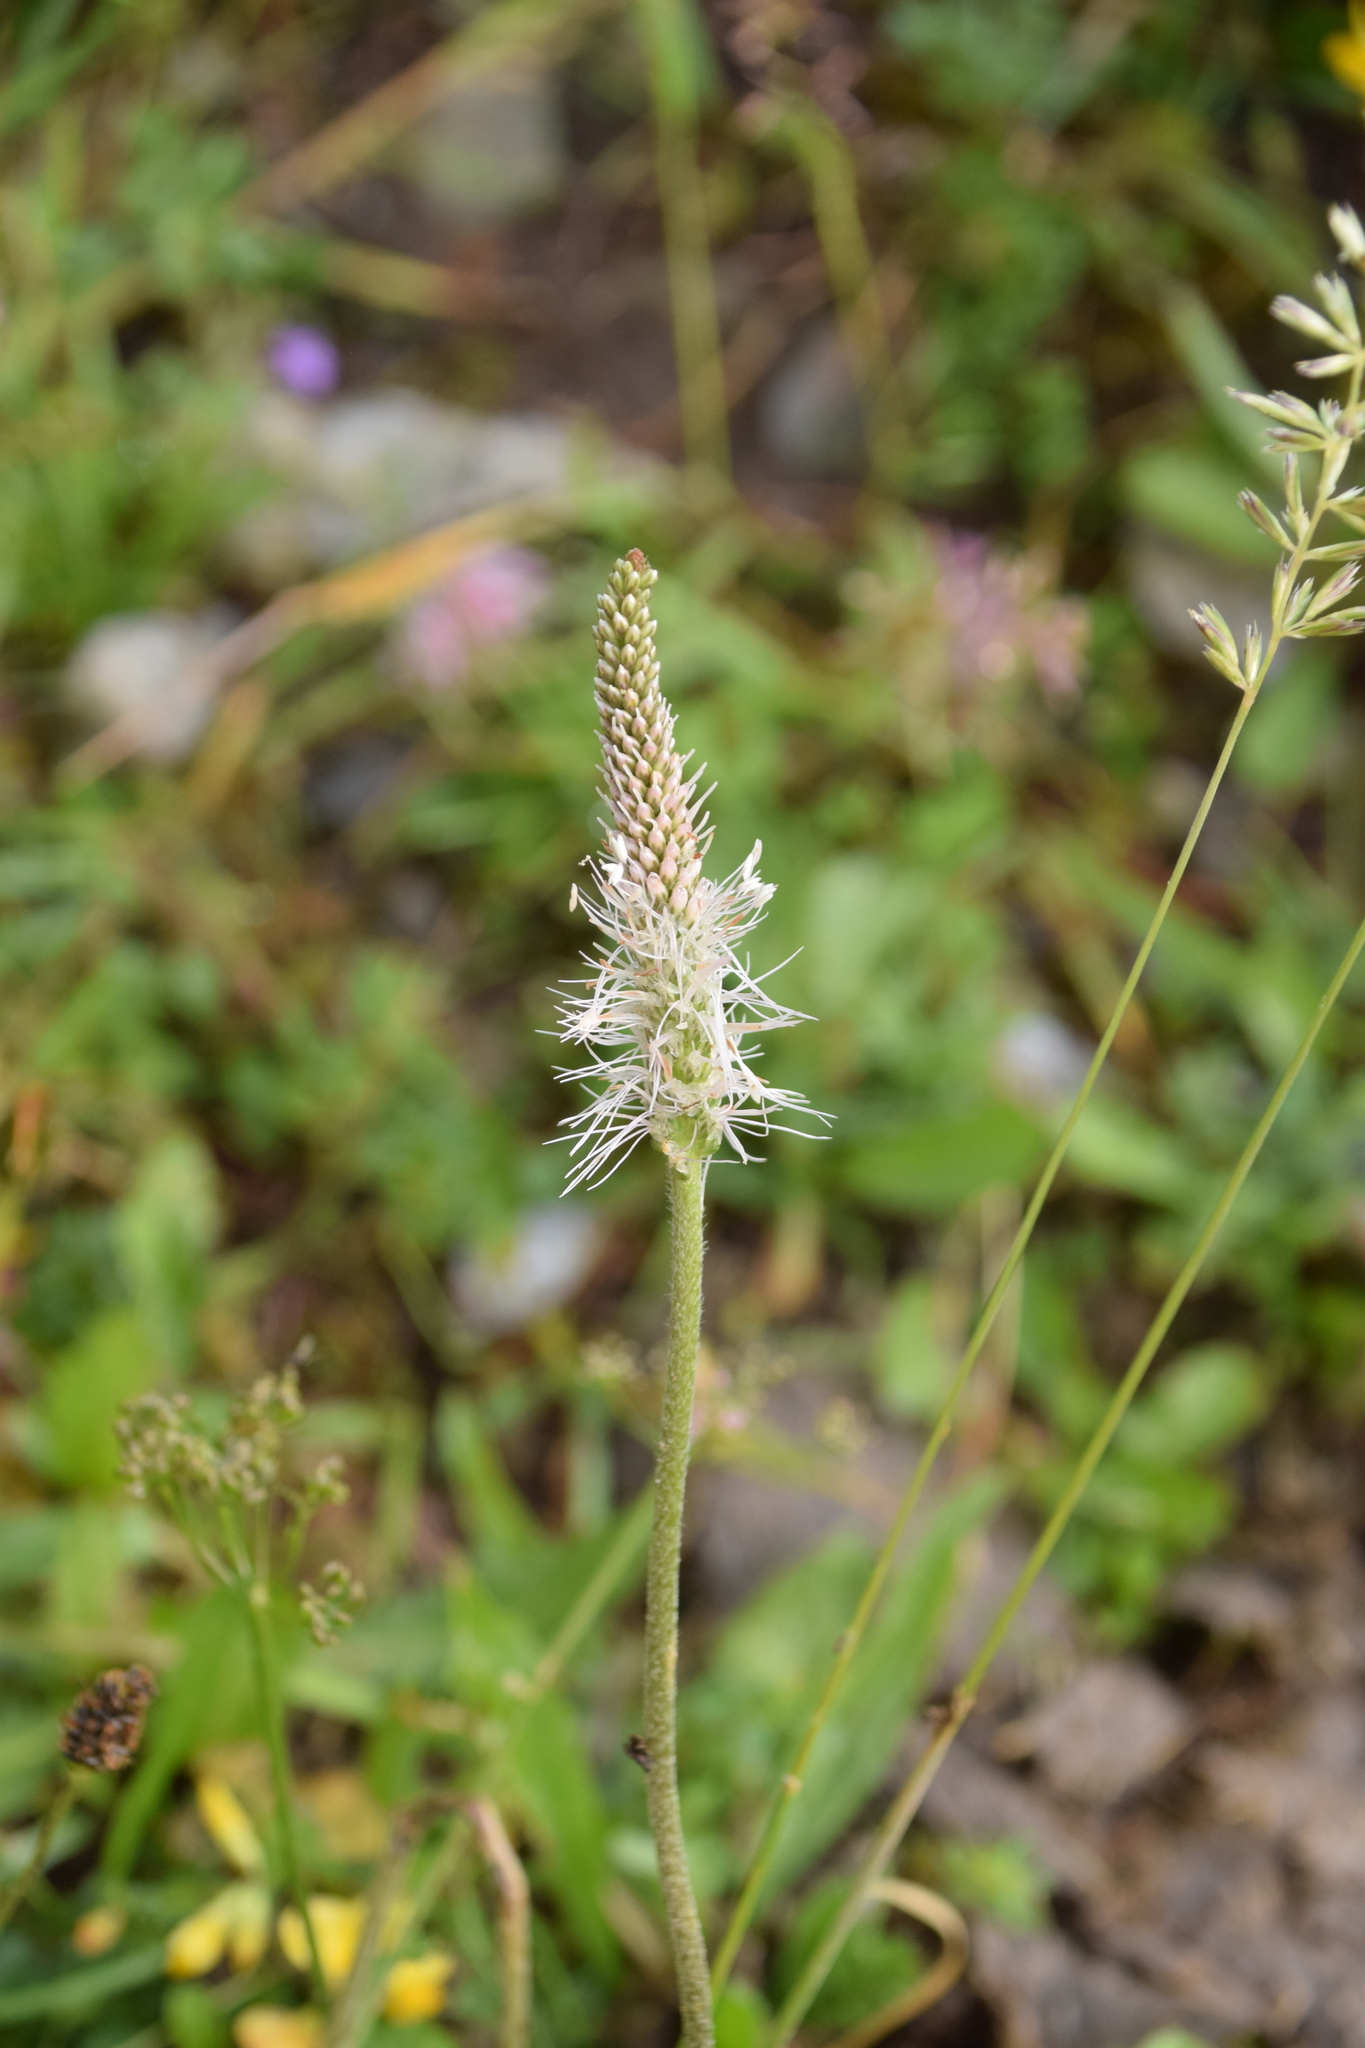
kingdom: Plantae
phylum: Tracheophyta
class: Magnoliopsida
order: Lamiales
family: Plantaginaceae
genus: Plantago
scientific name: Plantago media
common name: Hoary plantain
